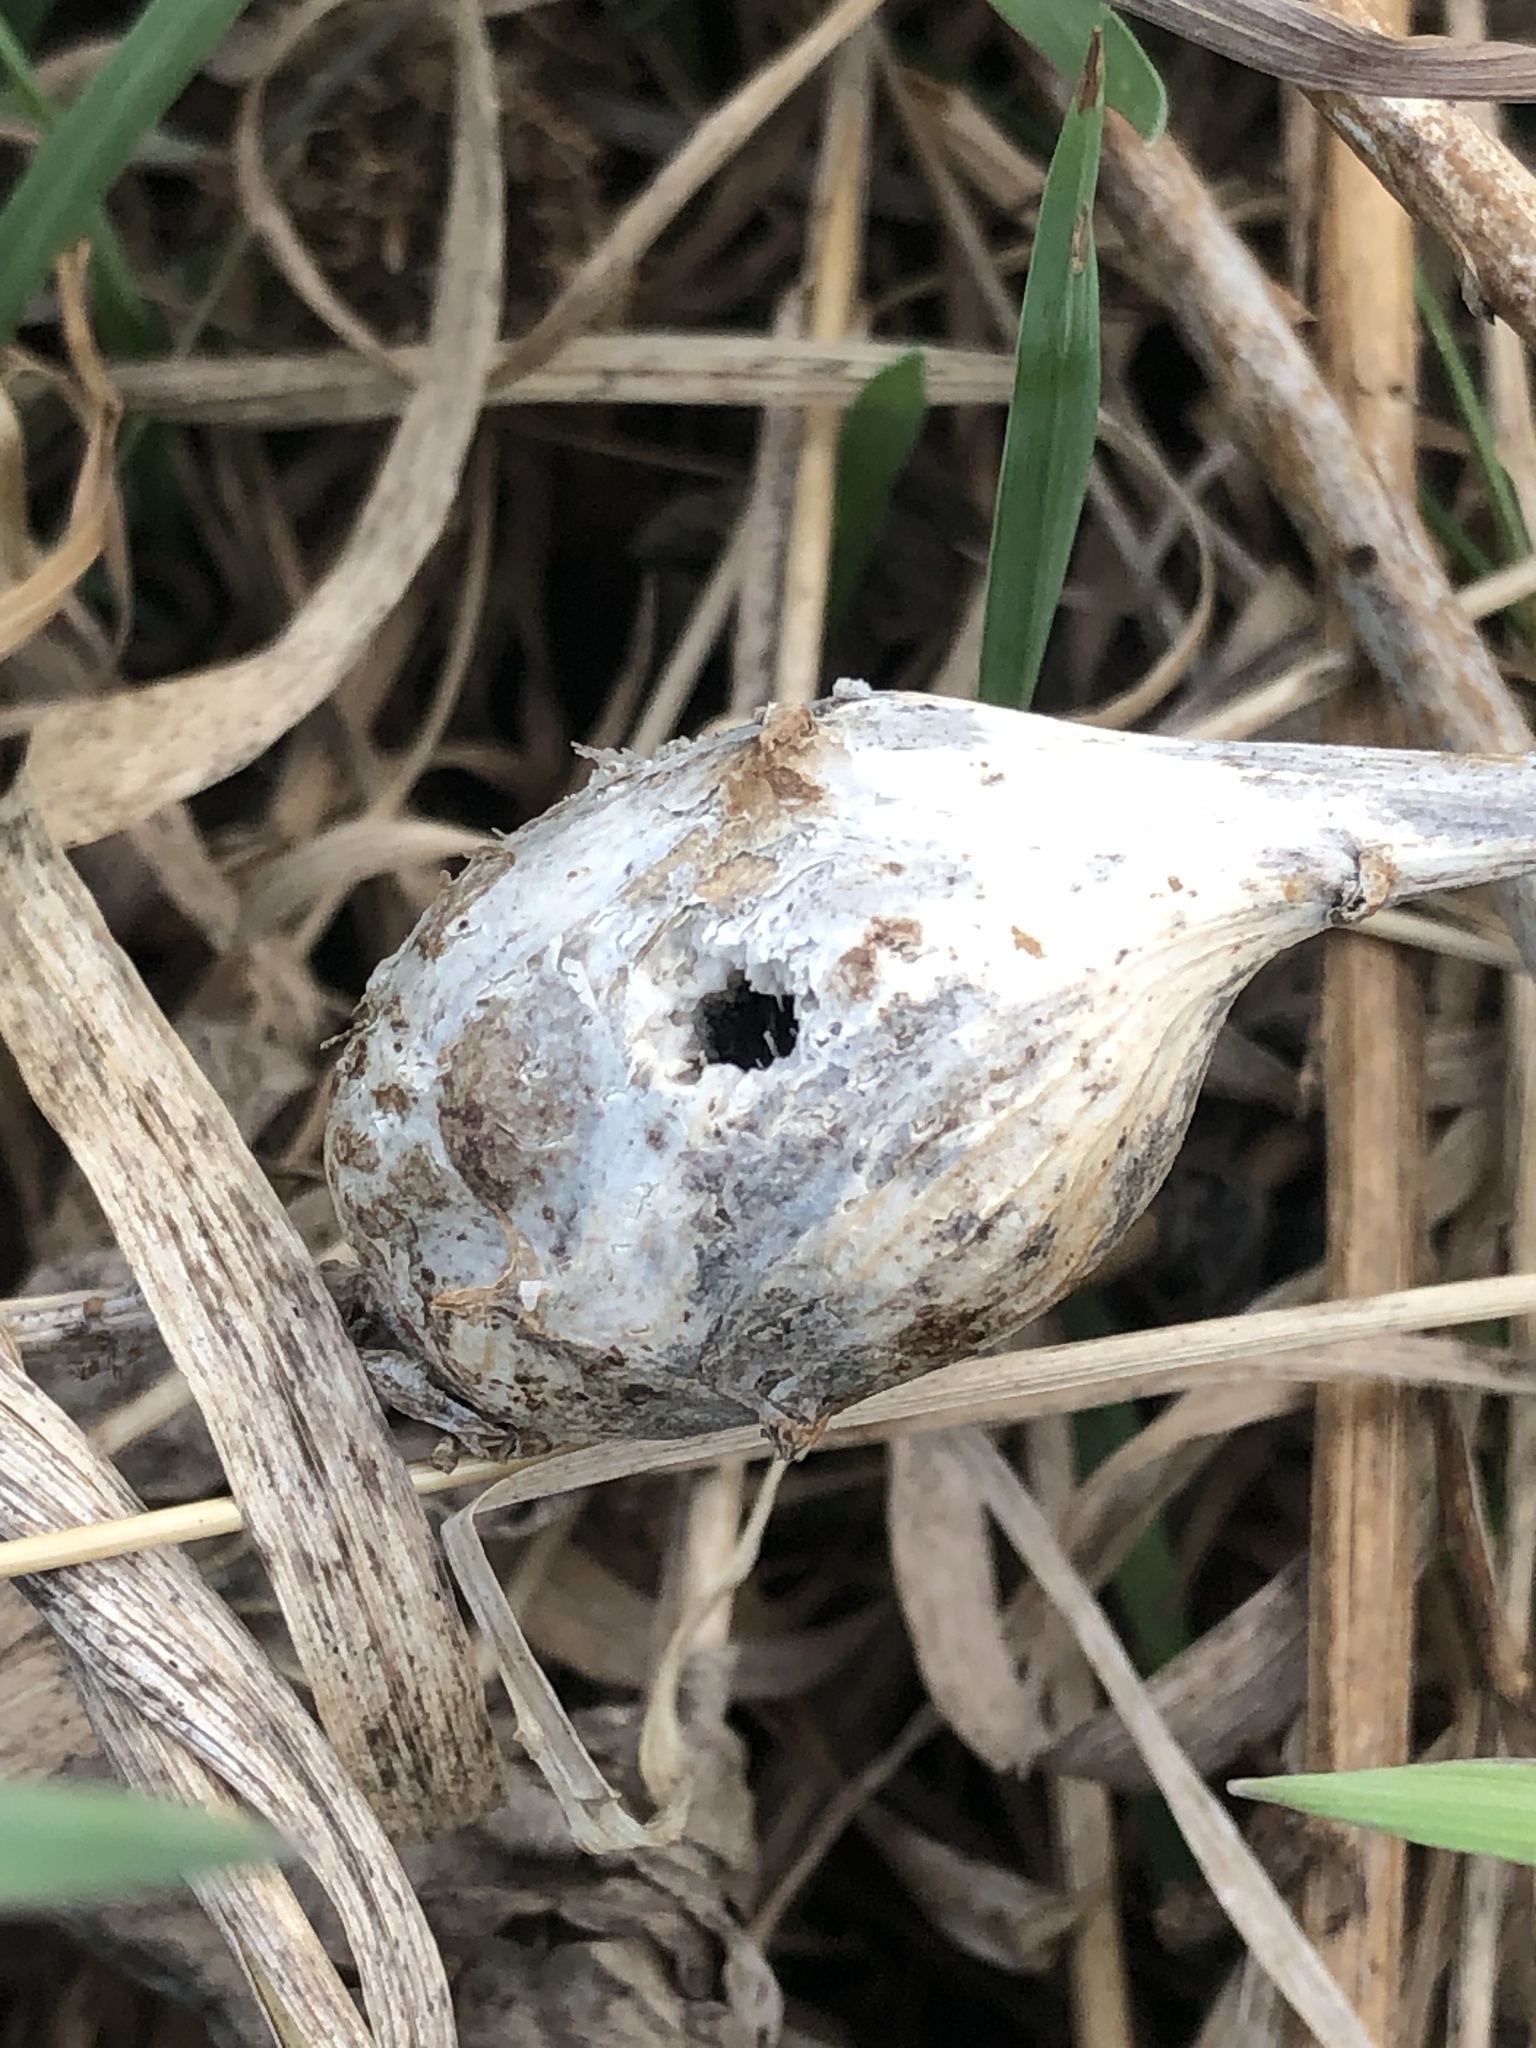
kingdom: Animalia
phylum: Arthropoda
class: Insecta
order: Diptera
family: Tephritidae
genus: Eurosta
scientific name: Eurosta solidaginis
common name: Goldenrod gall fly
